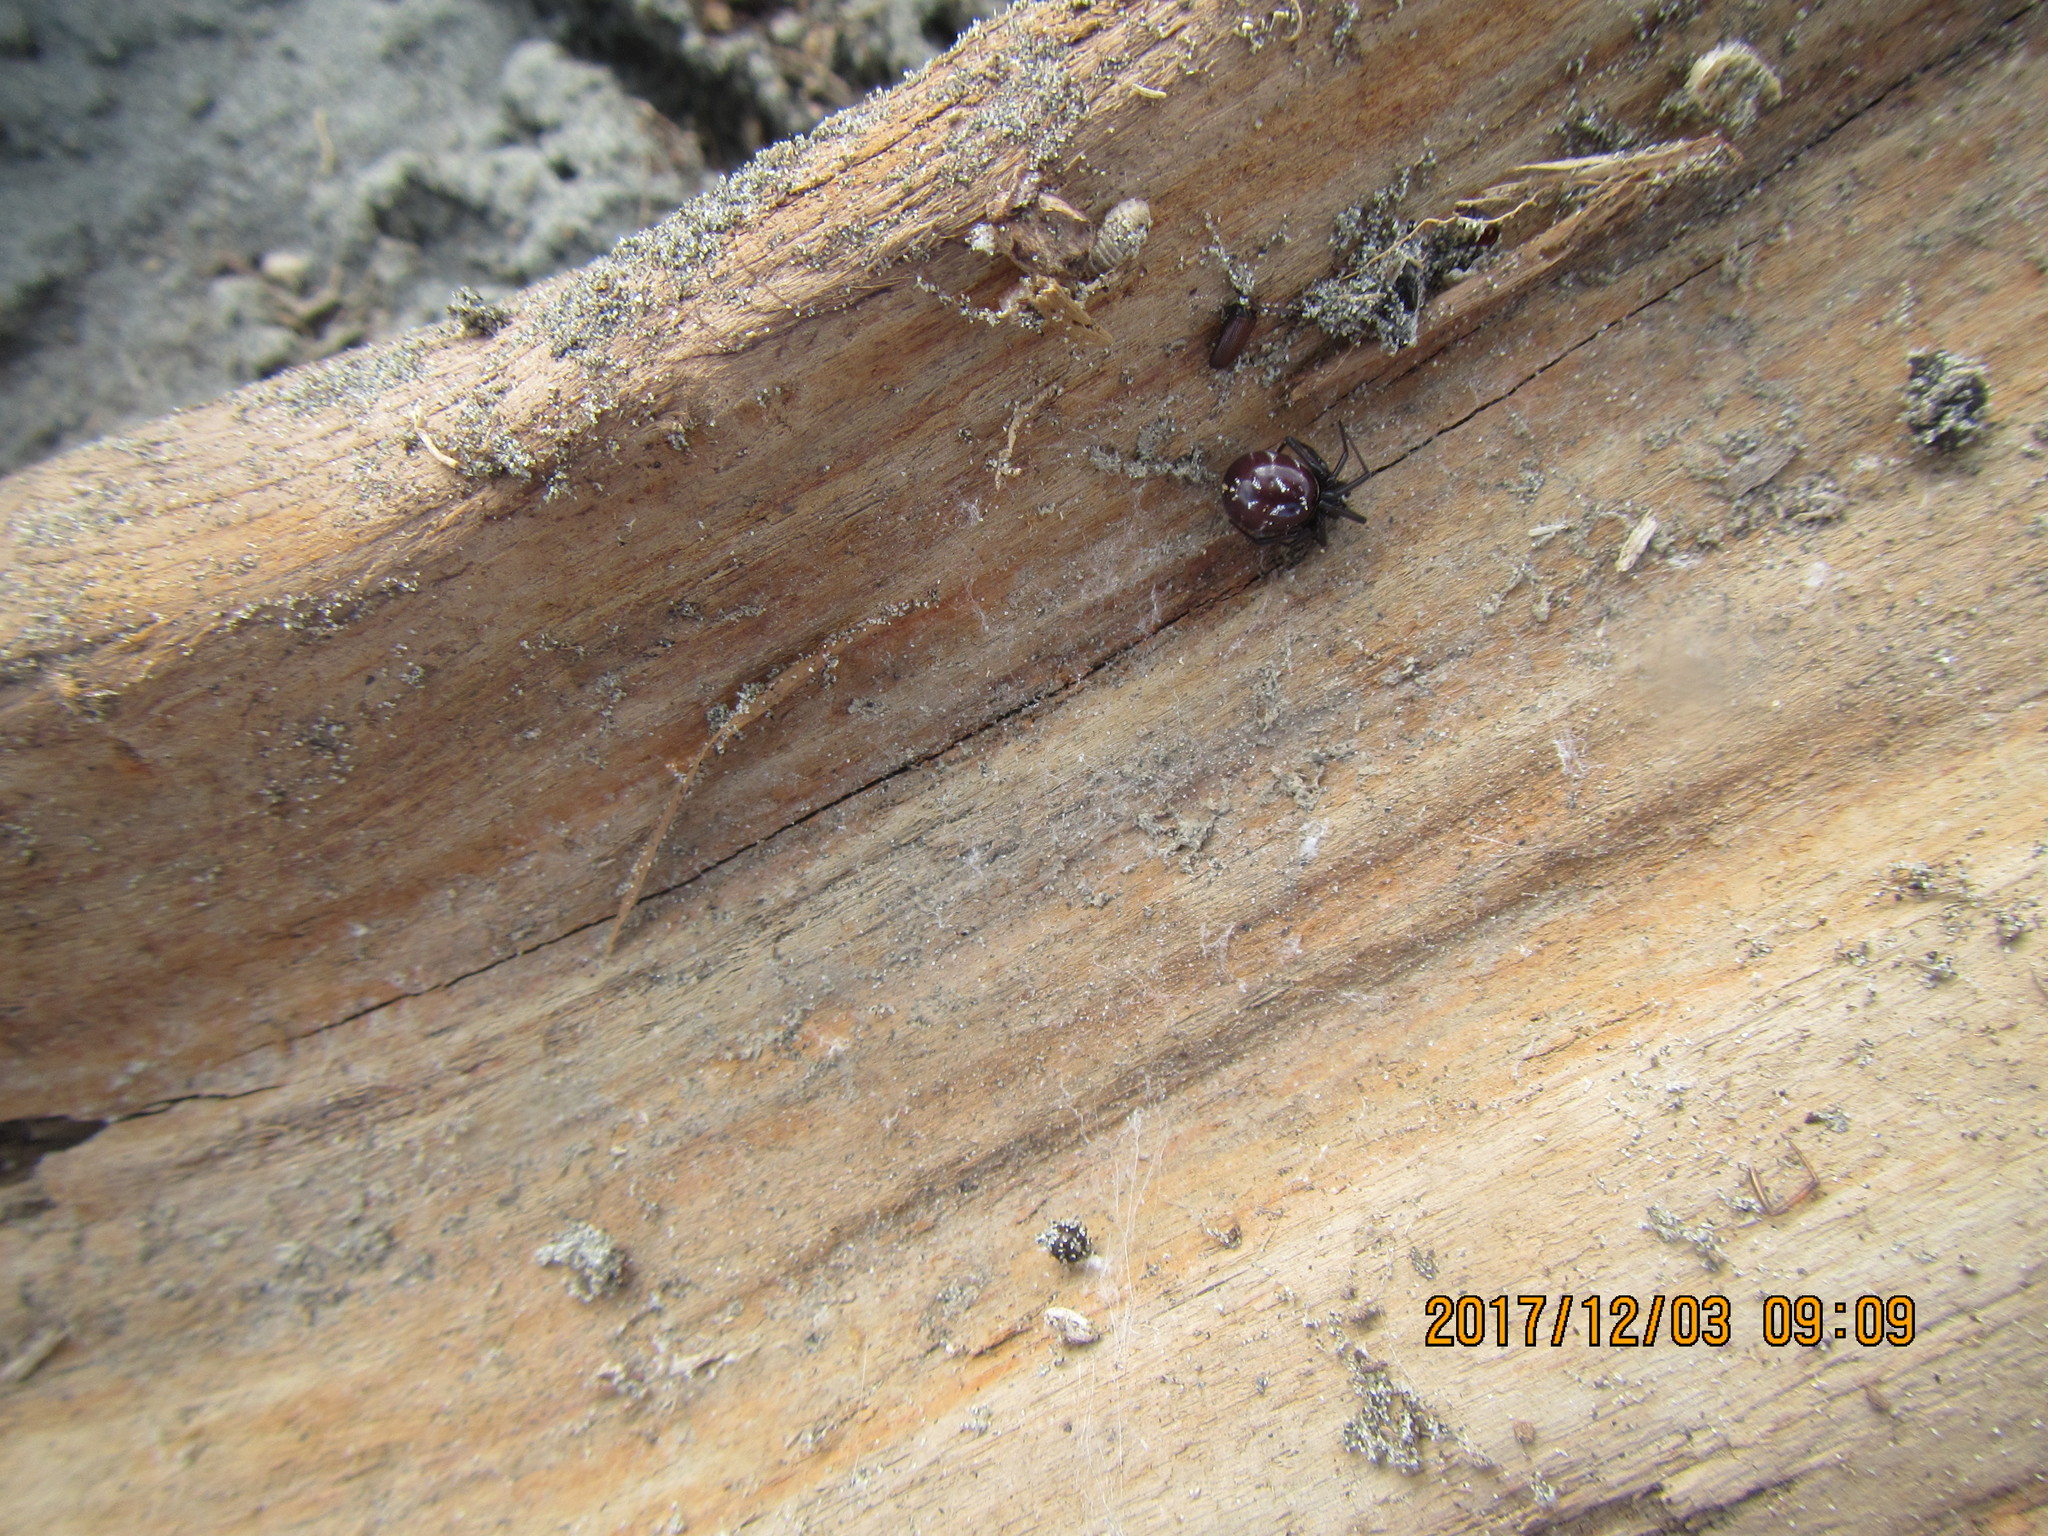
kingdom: Animalia
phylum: Arthropoda
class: Arachnida
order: Araneae
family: Theridiidae
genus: Steatoda
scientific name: Steatoda capensis
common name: Cobweb weaver
